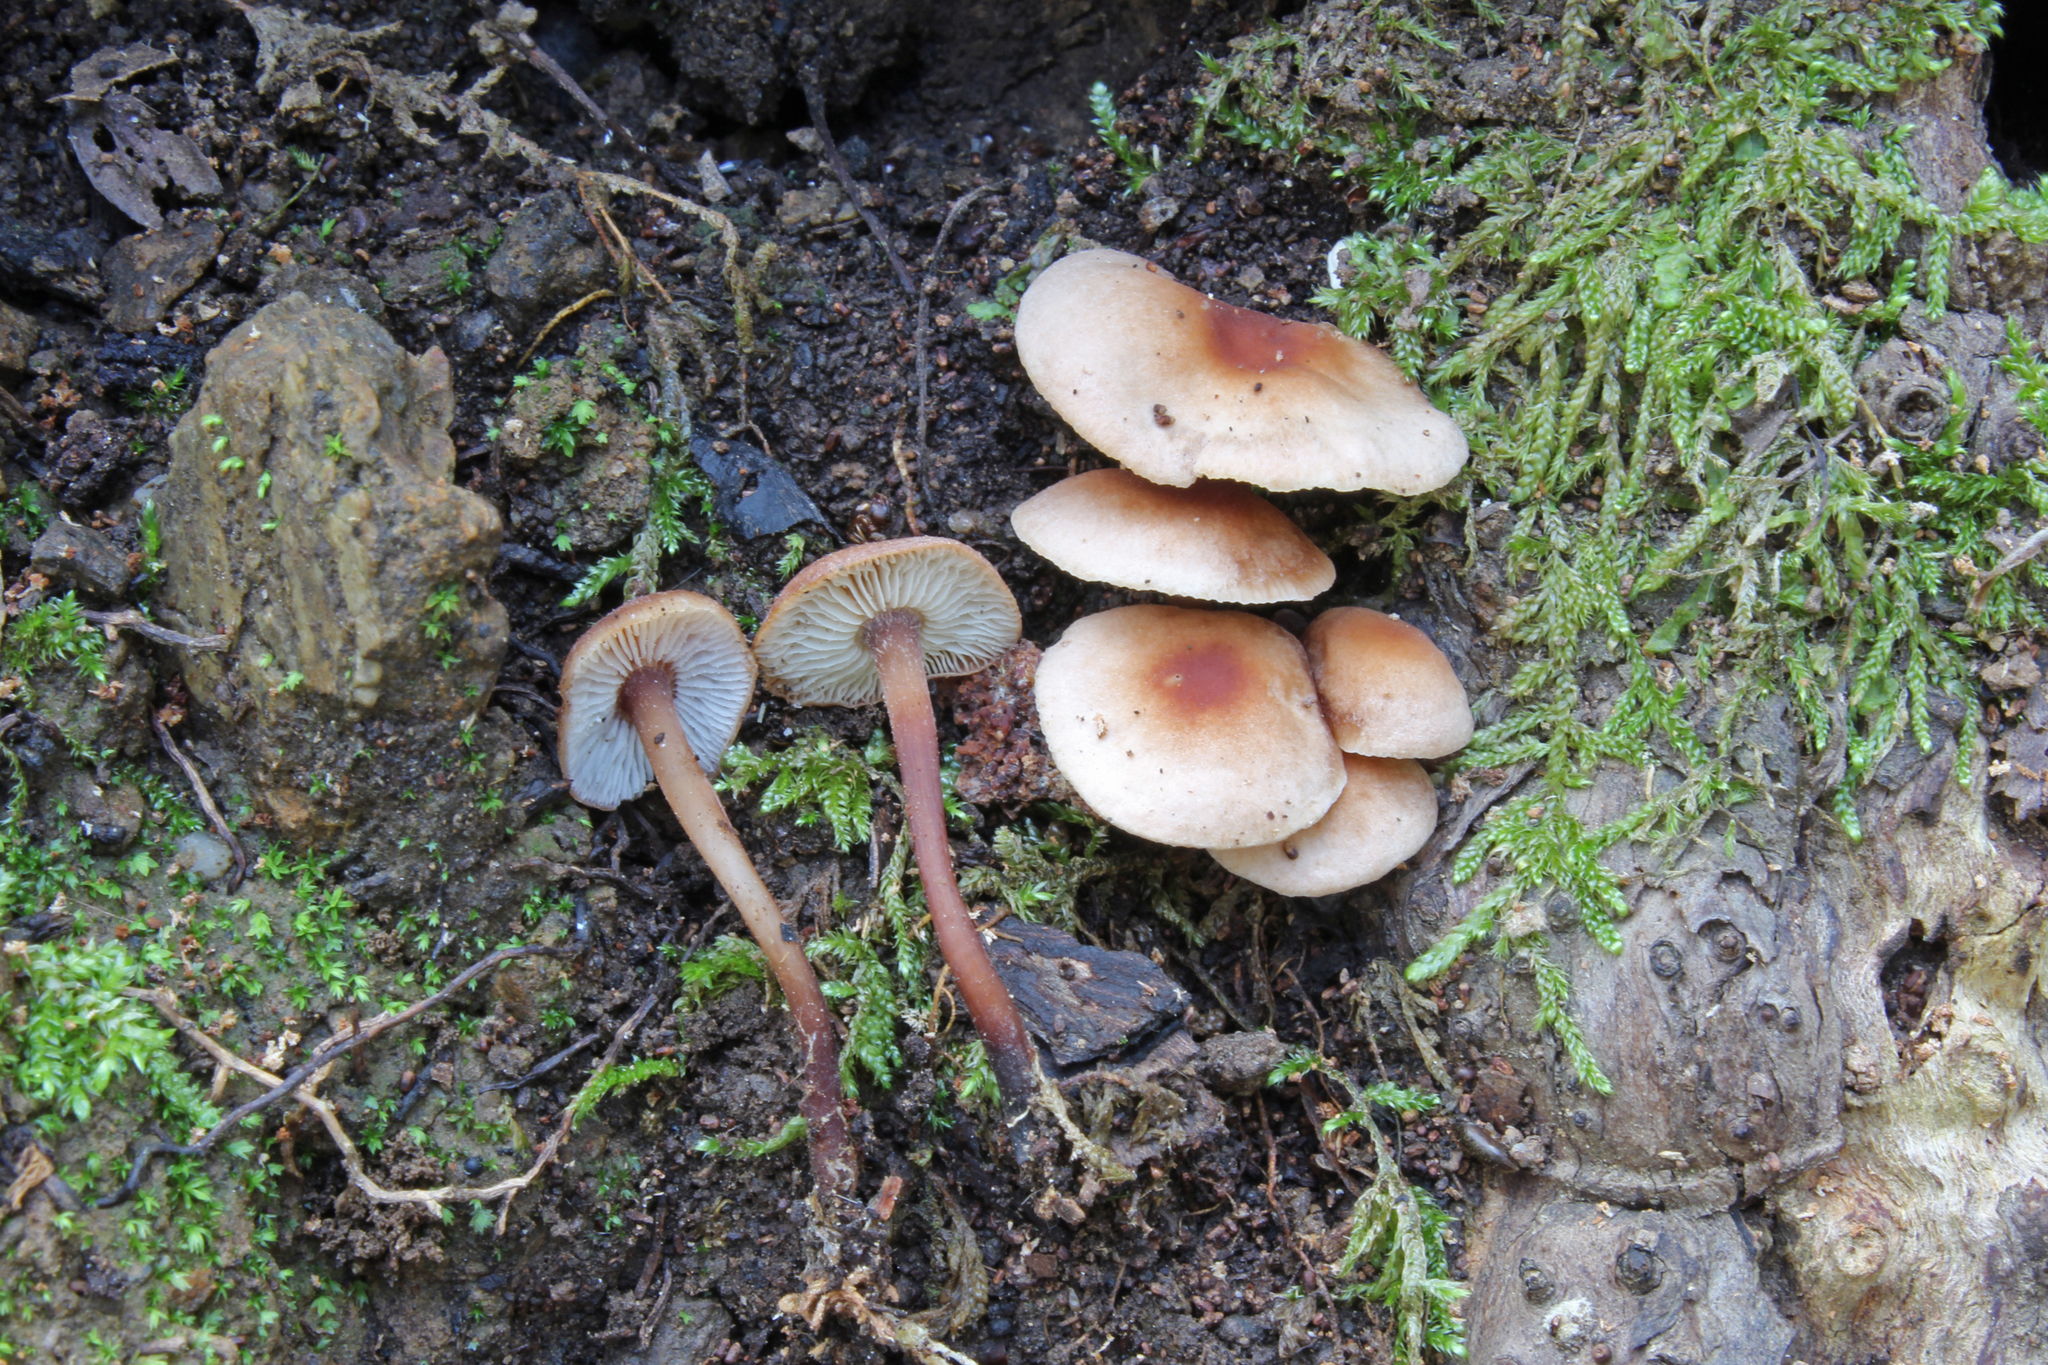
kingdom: Fungi
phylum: Basidiomycota
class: Agaricomycetes
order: Agaricales
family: Omphalotaceae
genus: Gymnopus
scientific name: Gymnopus brassicolens
